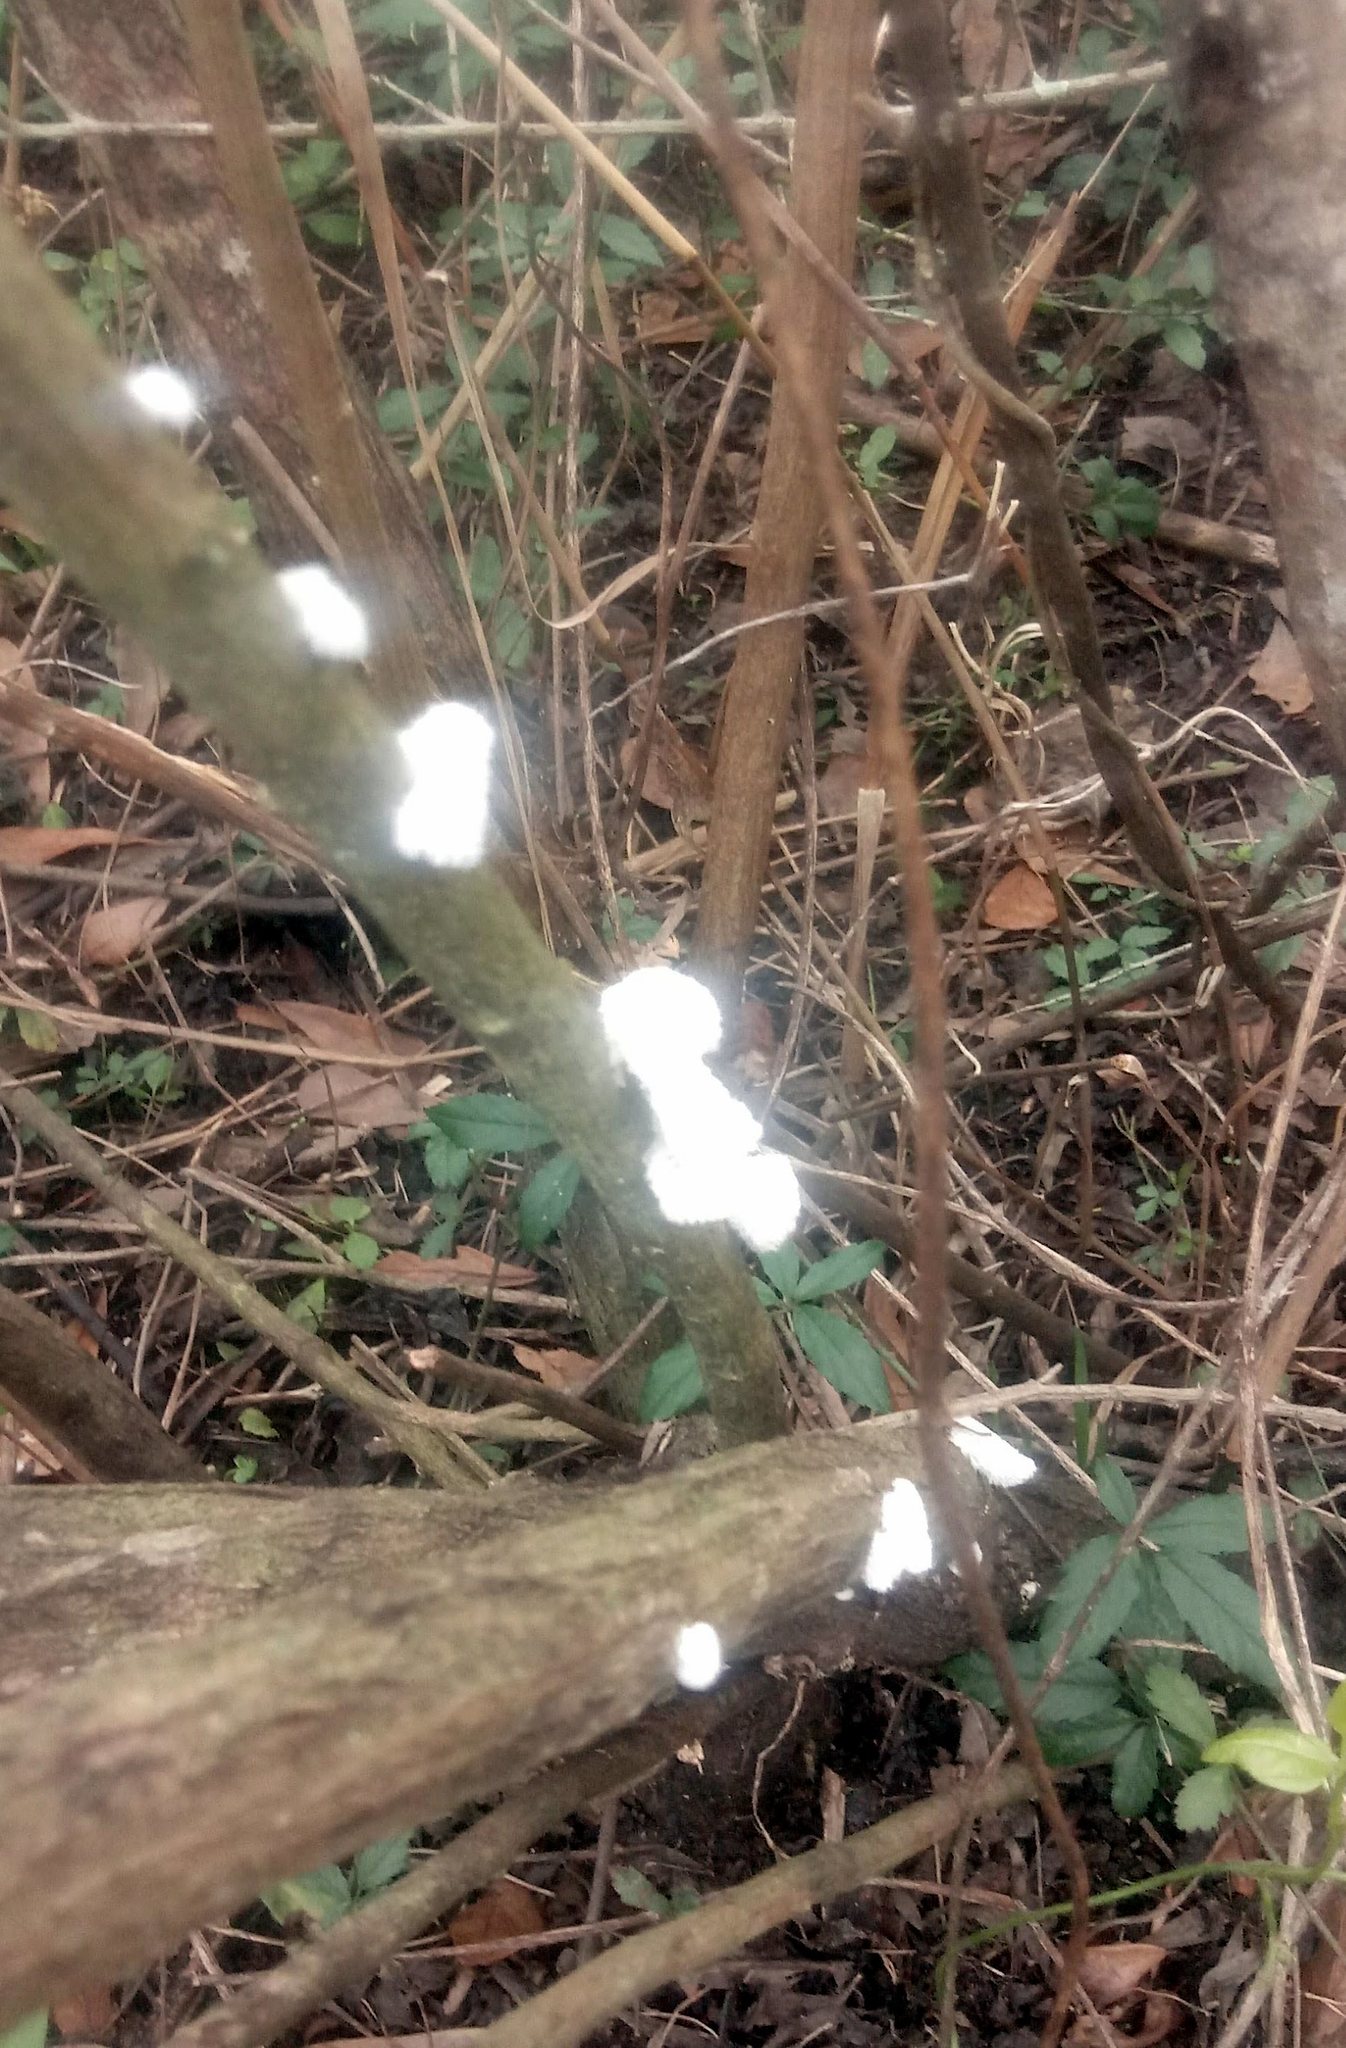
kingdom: Fungi
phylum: Basidiomycota
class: Agaricomycetes
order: Agaricales
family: Schizophyllaceae
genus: Schizophyllum
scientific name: Schizophyllum commune
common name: Common porecrust
